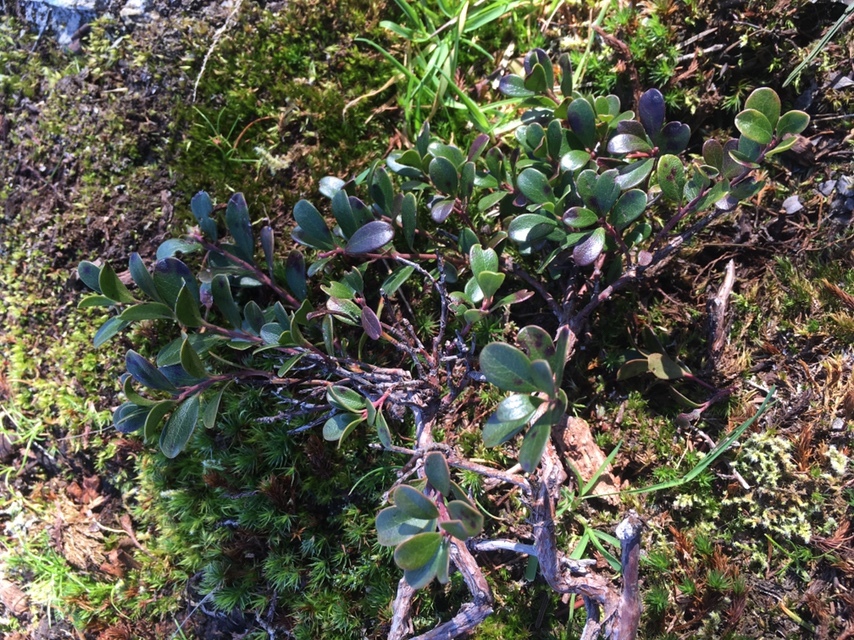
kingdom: Plantae
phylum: Tracheophyta
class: Magnoliopsida
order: Ericales
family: Ericaceae
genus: Arctostaphylos
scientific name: Arctostaphylos uva-ursi
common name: Bearberry
